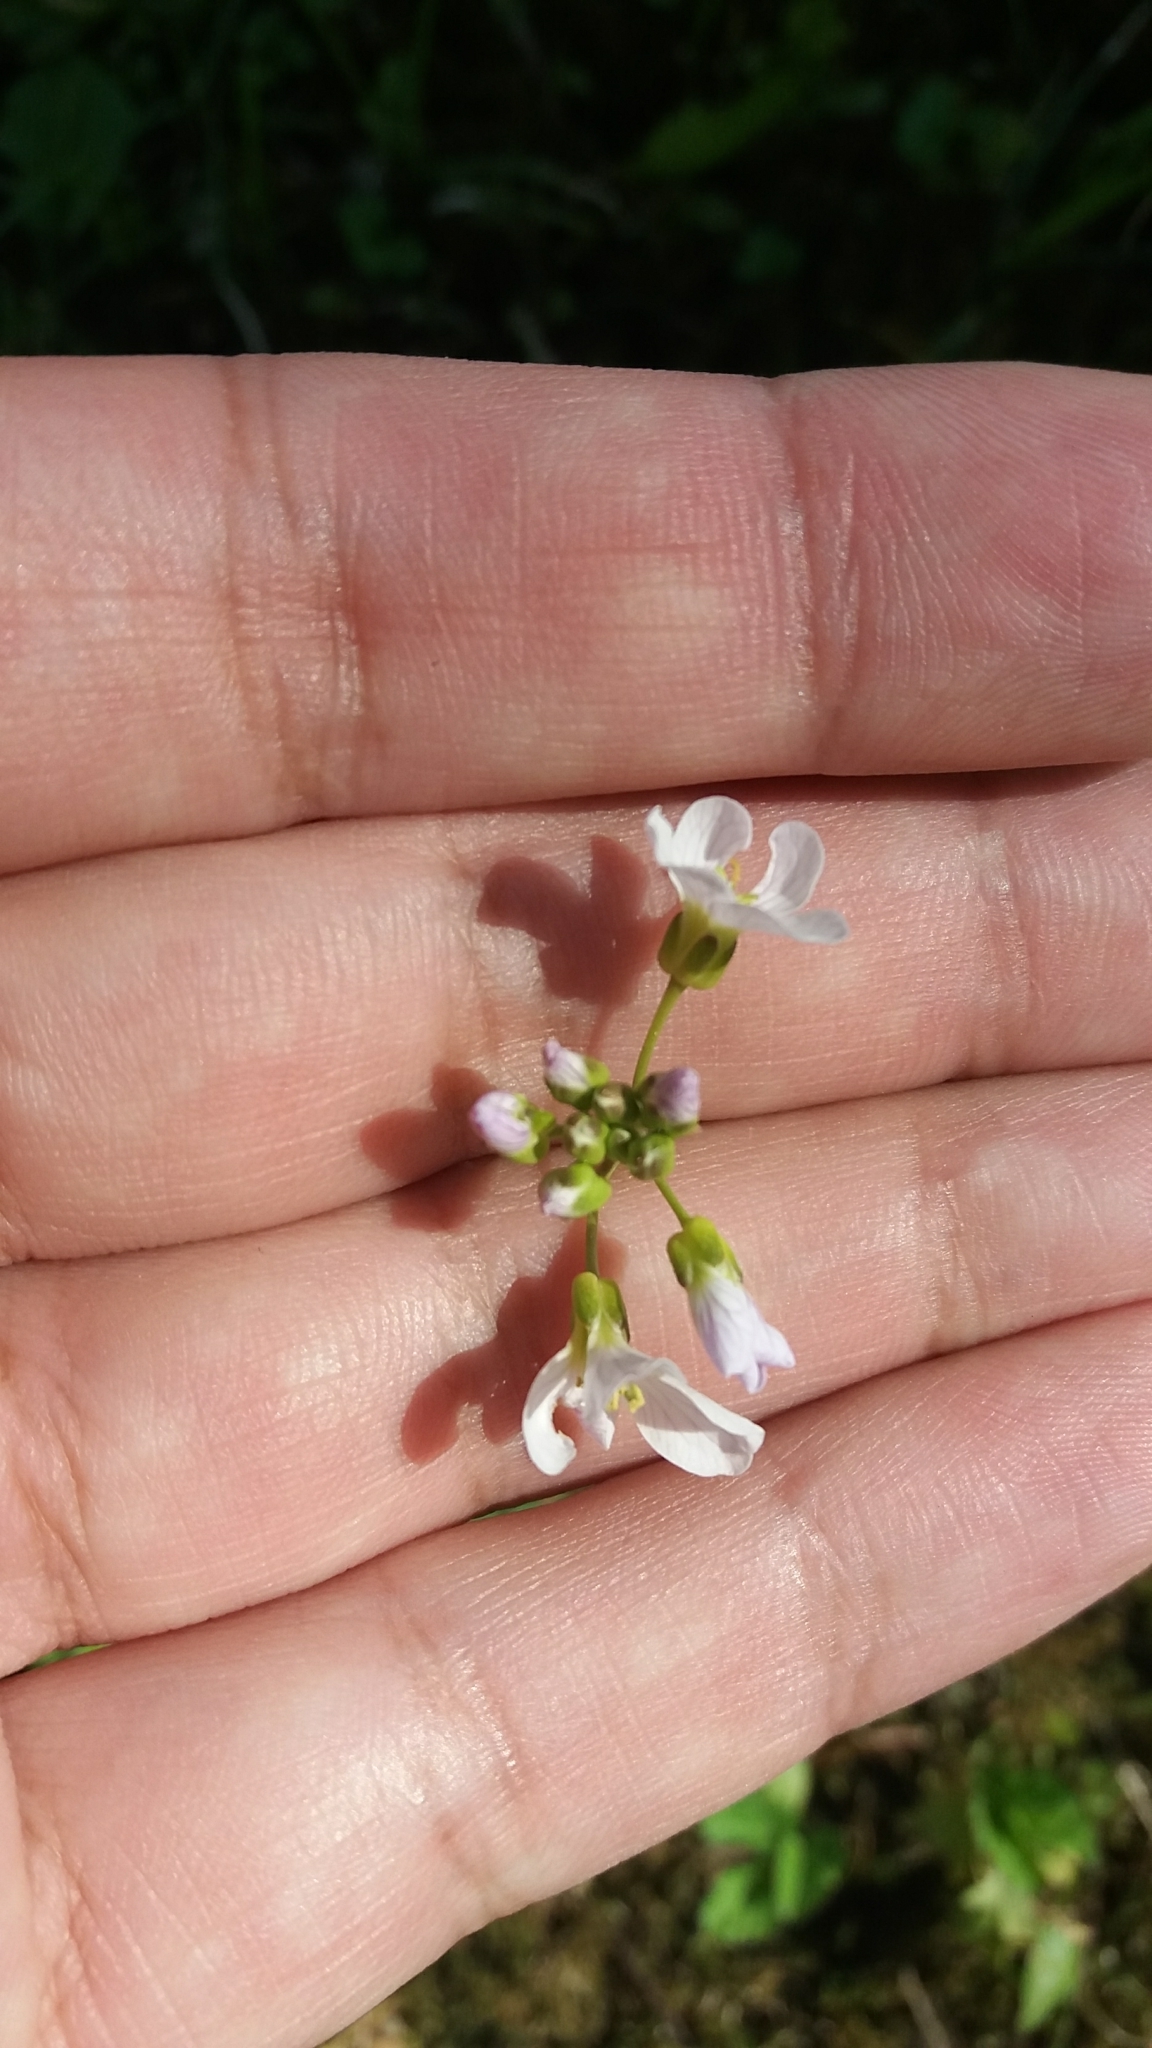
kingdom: Plantae
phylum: Tracheophyta
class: Magnoliopsida
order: Brassicales
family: Brassicaceae
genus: Cardamine
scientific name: Cardamine pratensis
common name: Cuckoo flower
